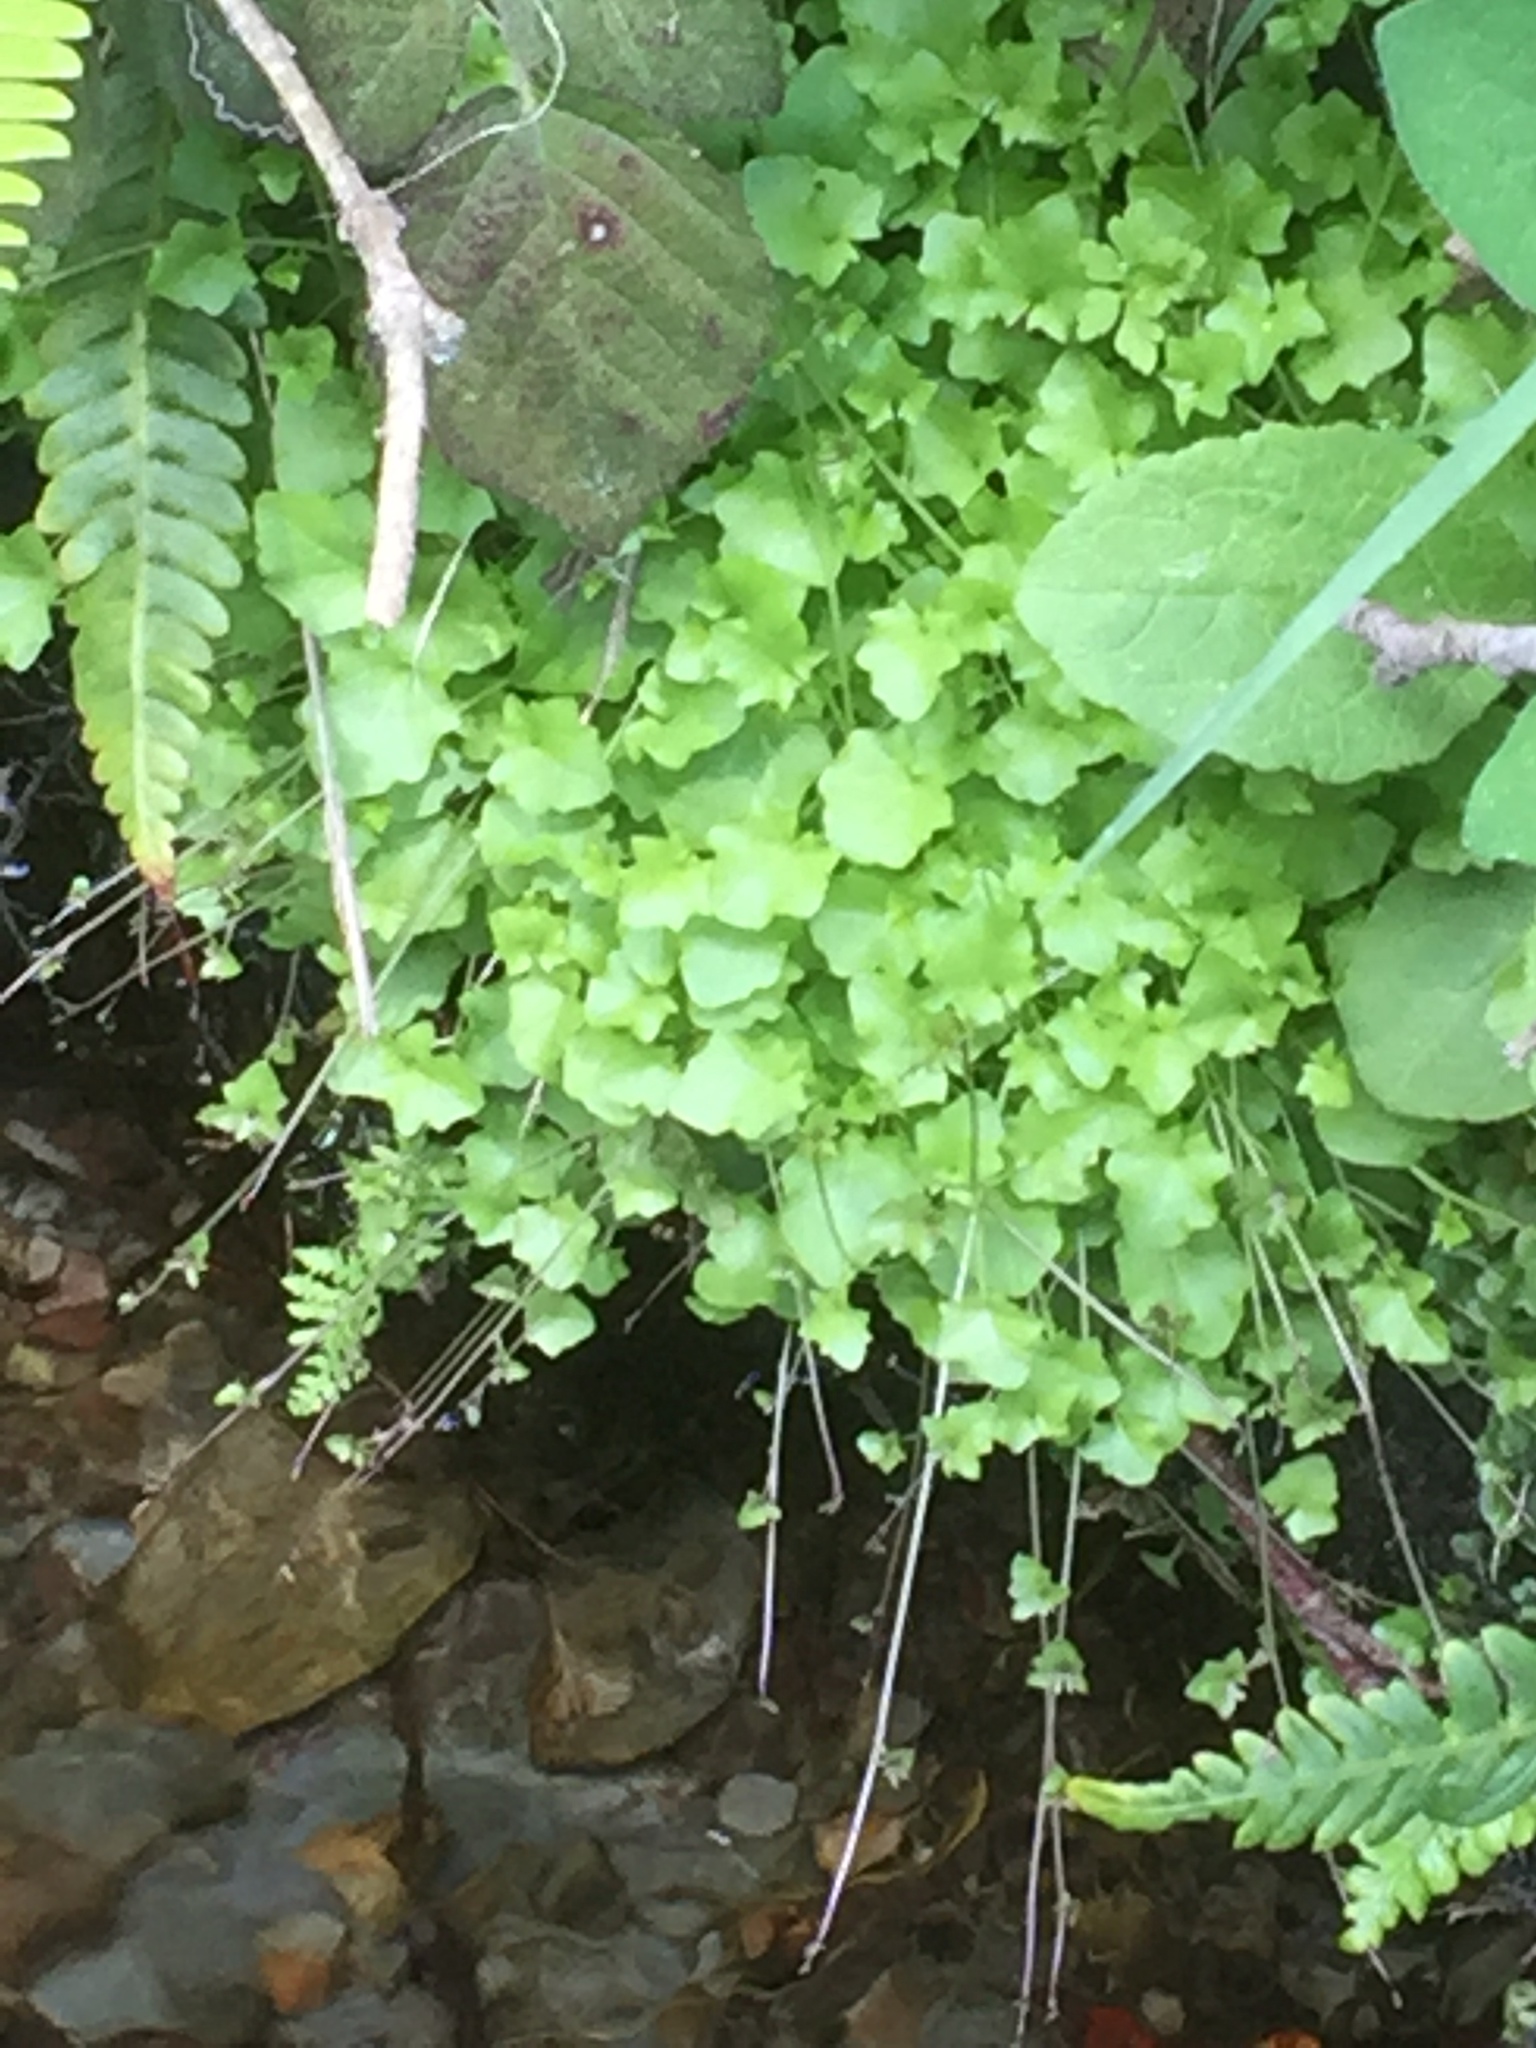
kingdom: Plantae
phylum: Tracheophyta
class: Magnoliopsida
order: Asterales
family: Campanulaceae
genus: Hesperocodon
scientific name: Hesperocodon hederaceus
